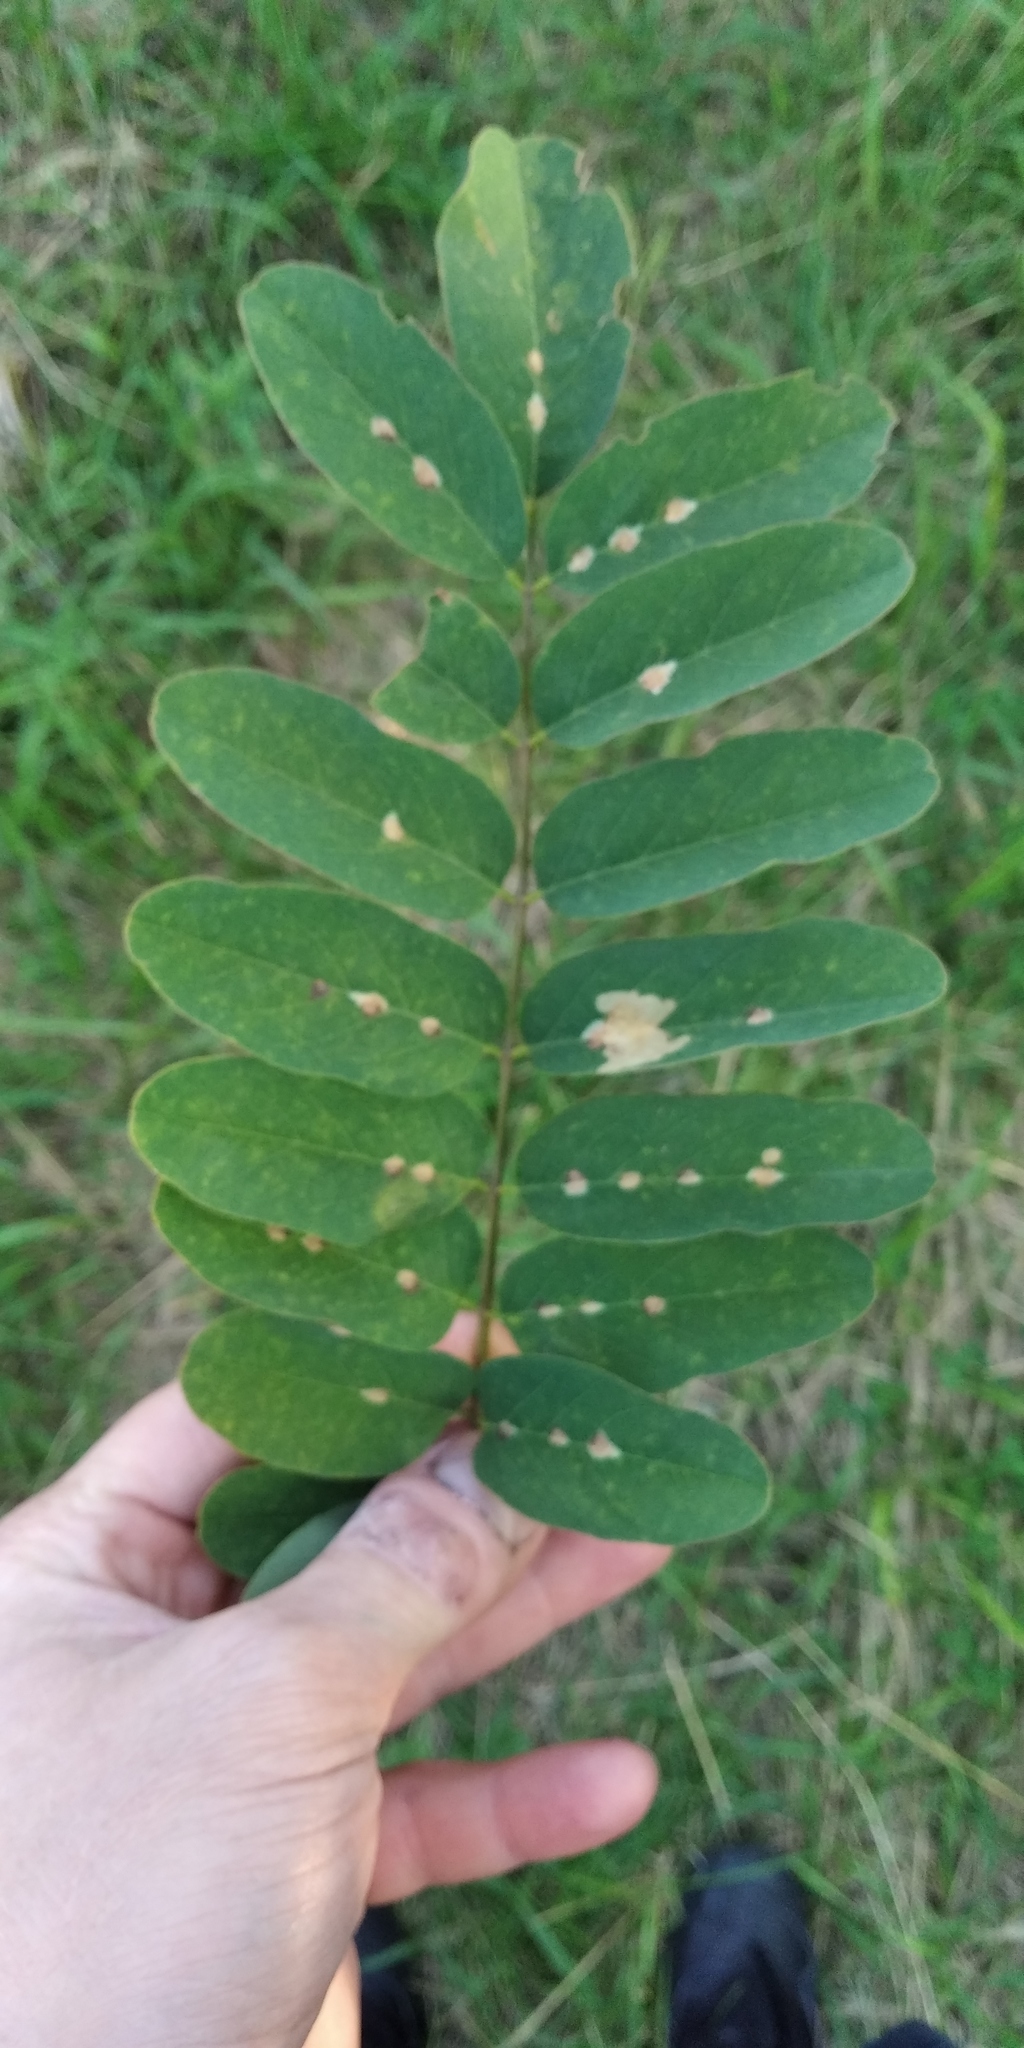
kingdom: Animalia
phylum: Arthropoda
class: Insecta
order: Lepidoptera
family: Gracillariidae
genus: Parectopa
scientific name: Parectopa robiniella
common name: Locust digitate leafminer
